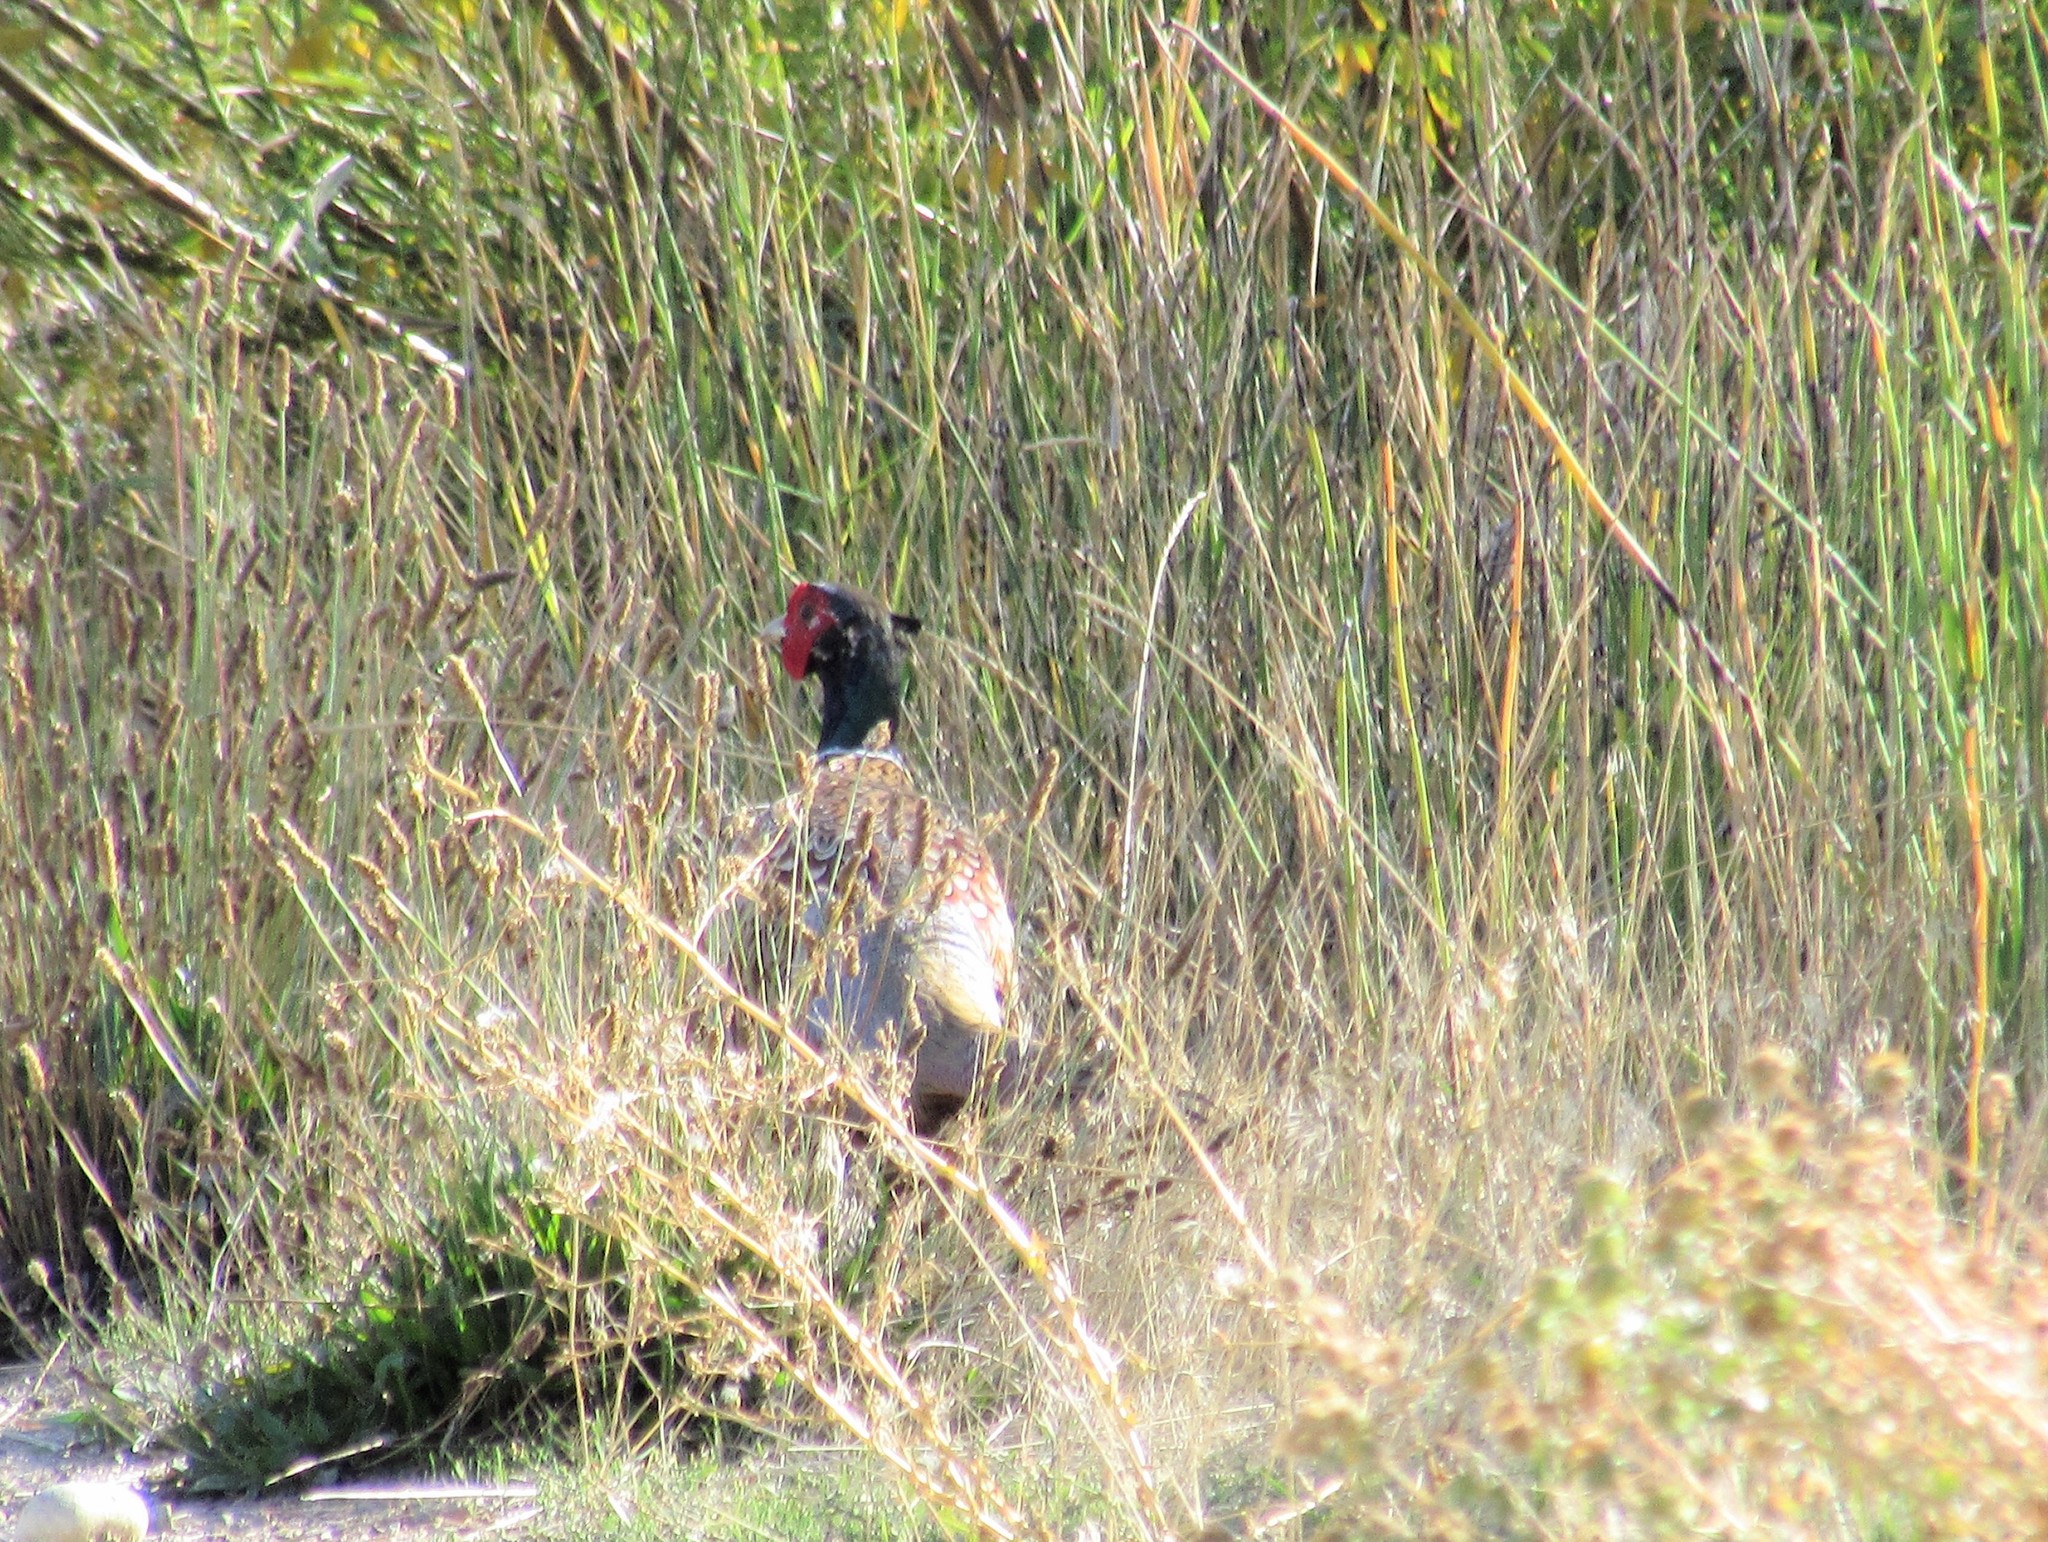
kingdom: Animalia
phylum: Chordata
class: Aves
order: Galliformes
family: Phasianidae
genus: Phasianus
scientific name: Phasianus colchicus
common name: Common pheasant
